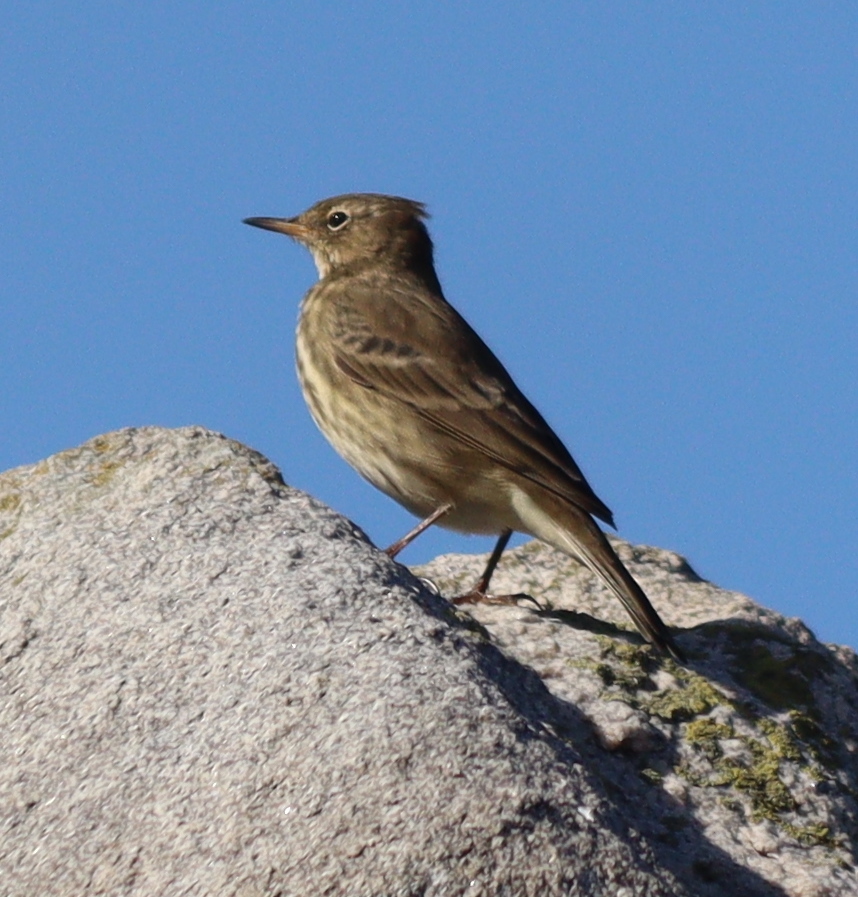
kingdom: Animalia
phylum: Chordata
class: Aves
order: Passeriformes
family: Motacillidae
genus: Anthus
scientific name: Anthus petrosus
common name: Eurasian rock pipit
